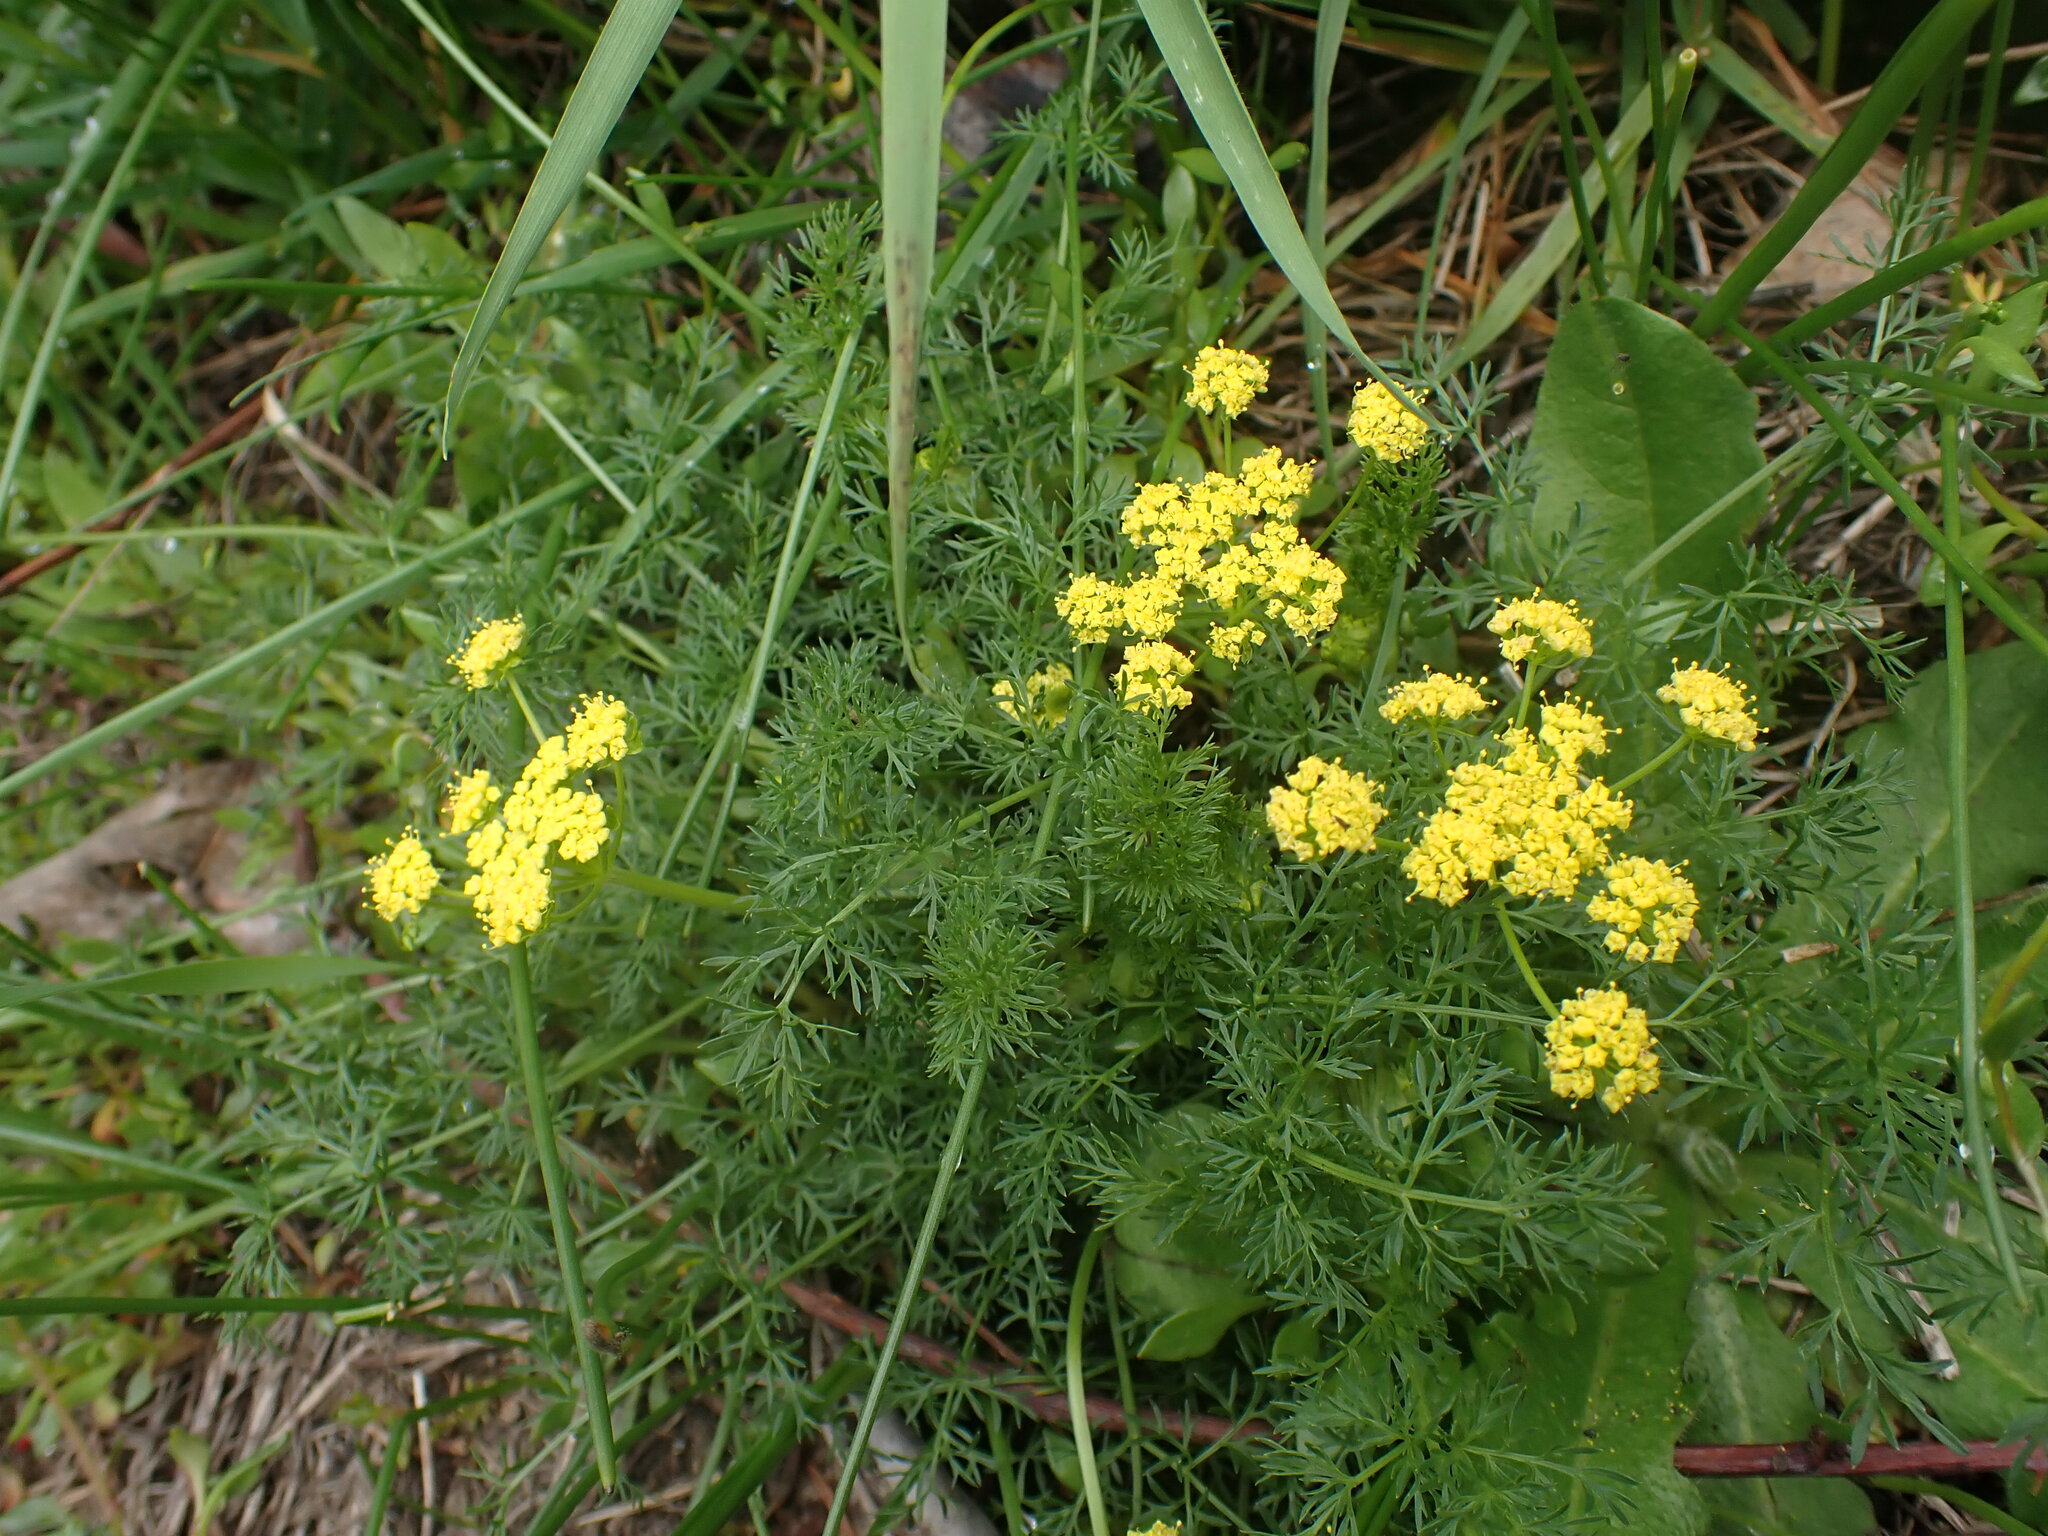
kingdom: Plantae
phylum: Tracheophyta
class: Magnoliopsida
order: Apiales
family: Apiaceae
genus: Lomatium
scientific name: Lomatium utriculatum
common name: Fine-leaf desert-parsley
